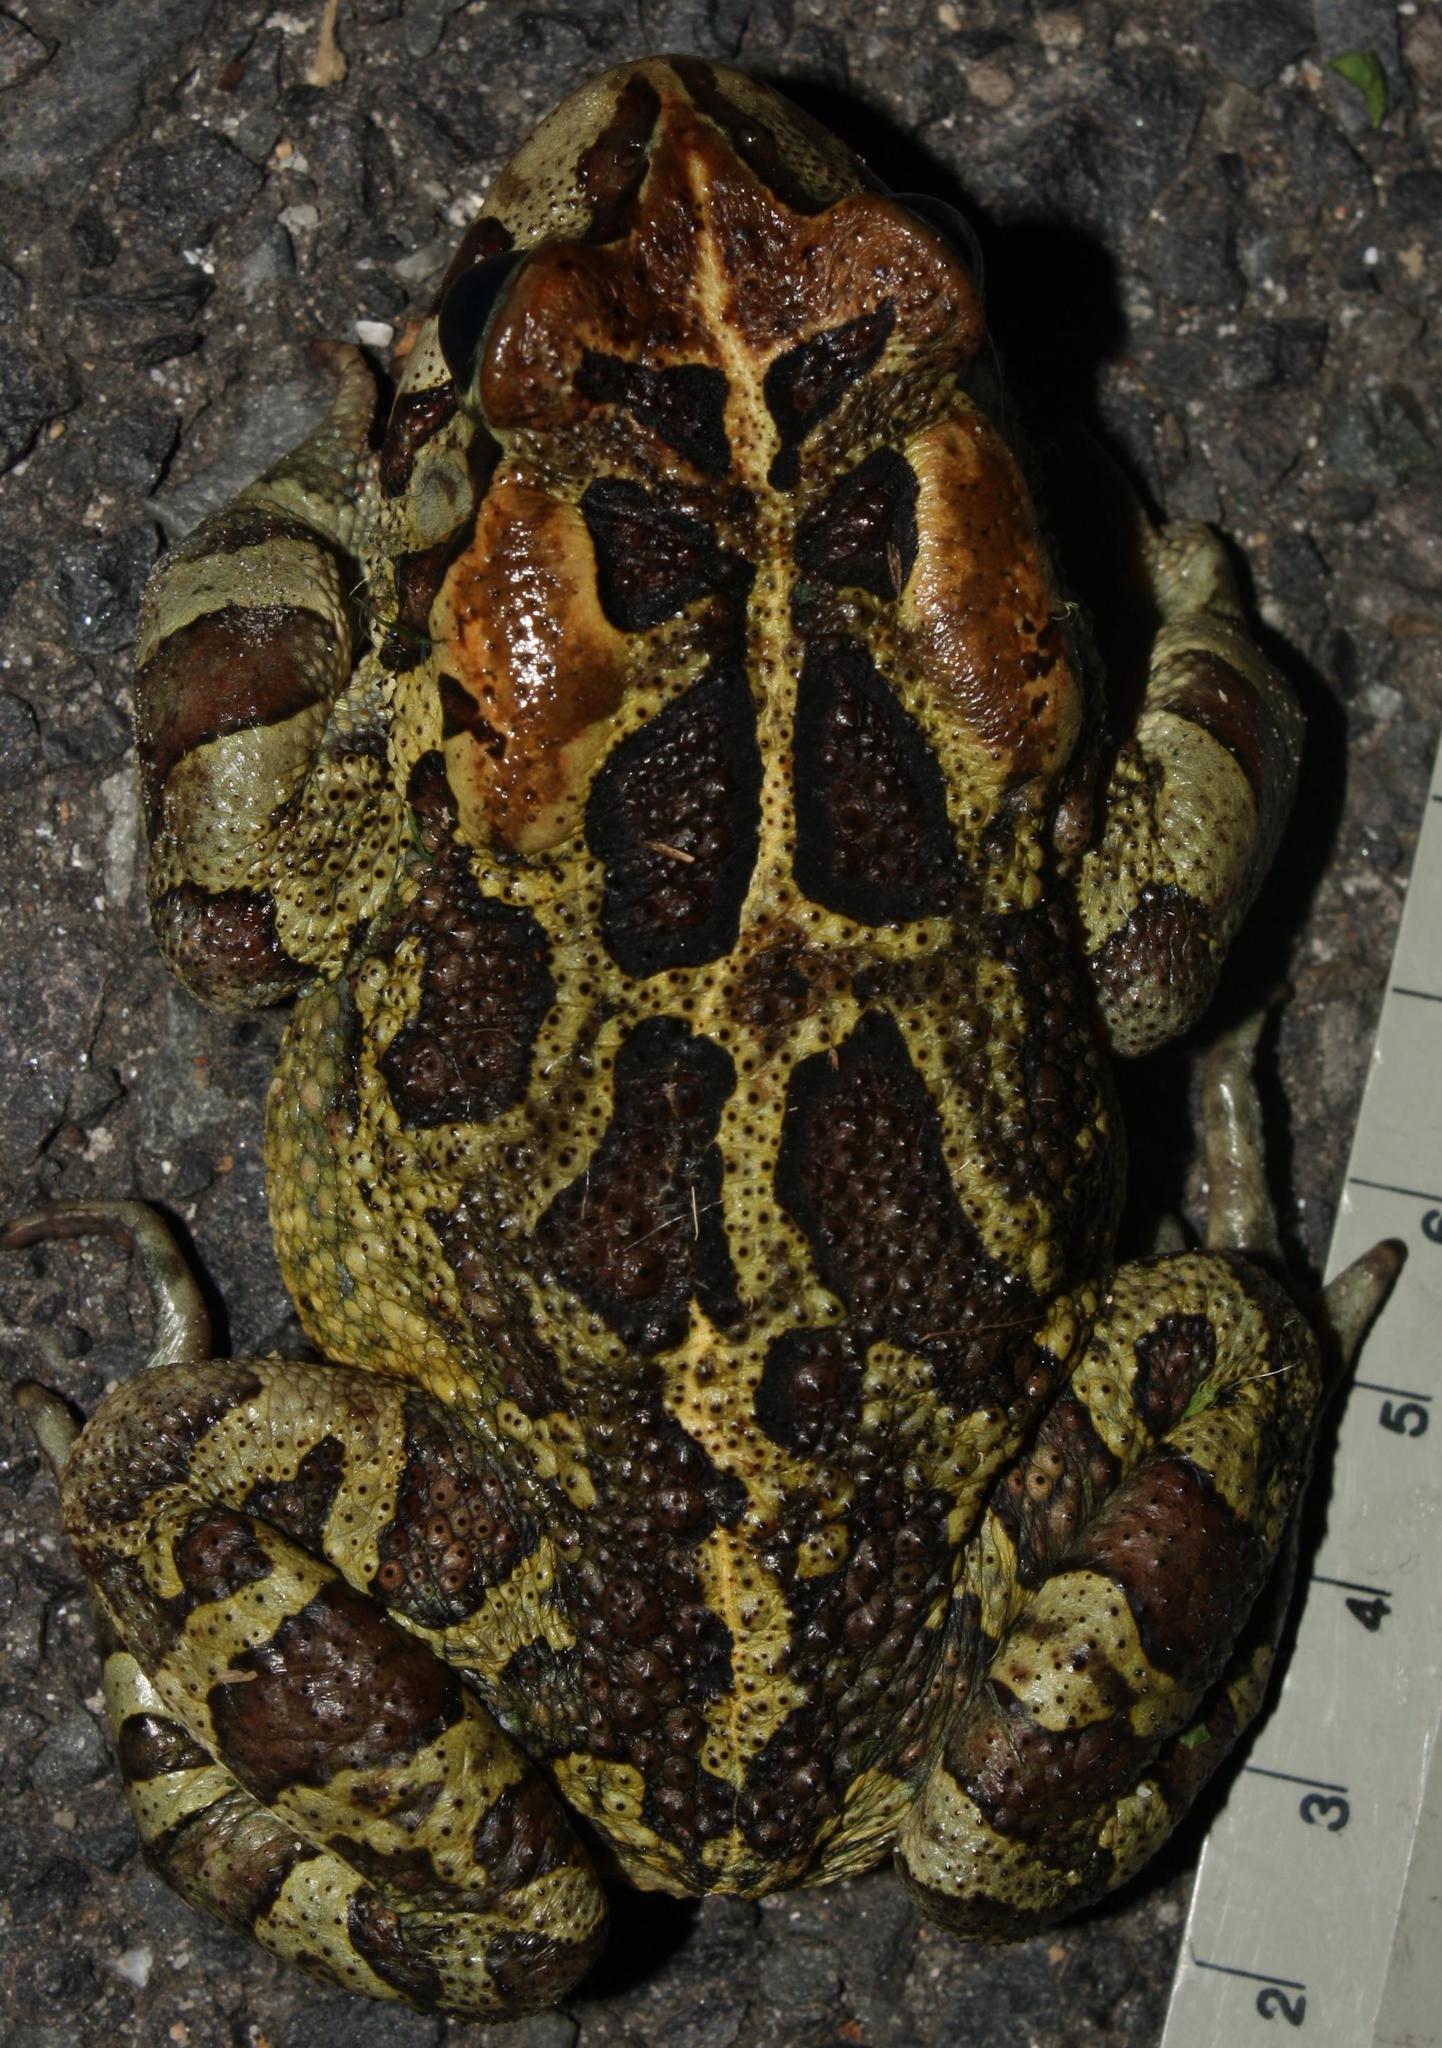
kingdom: Animalia
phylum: Chordata
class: Amphibia
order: Anura
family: Bufonidae
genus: Sclerophrys
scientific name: Sclerophrys pantherina
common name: Panther toad
